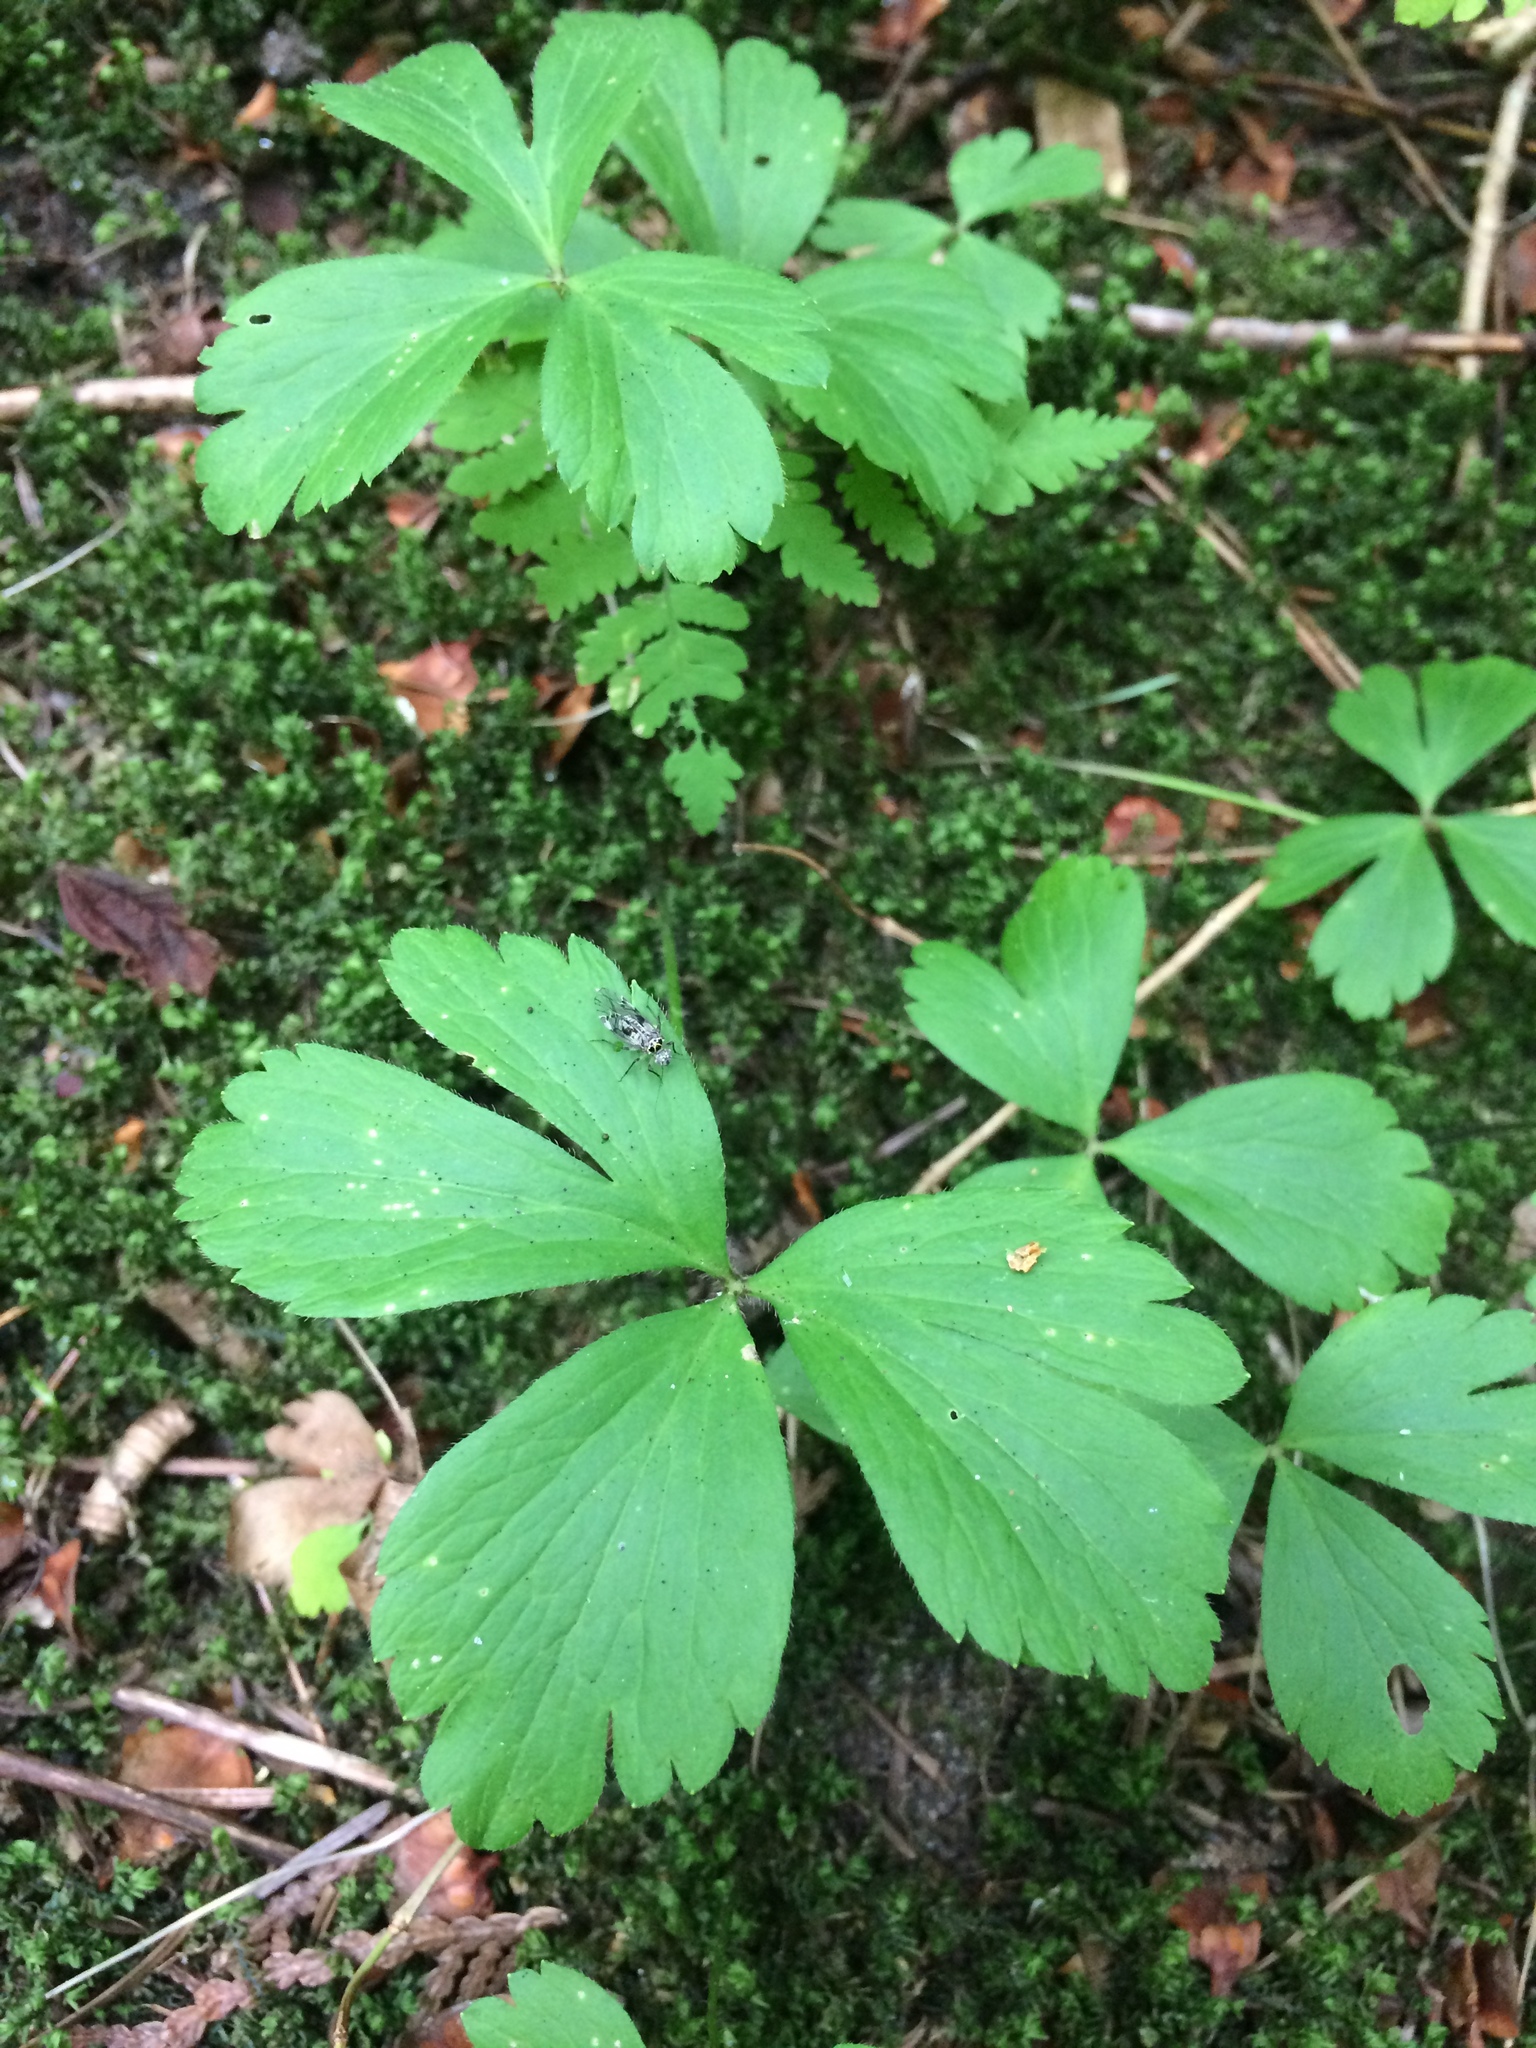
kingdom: Plantae
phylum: Tracheophyta
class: Magnoliopsida
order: Ranunculales
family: Ranunculaceae
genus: Anemone
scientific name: Anemone quinquefolia
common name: Wood anemone
